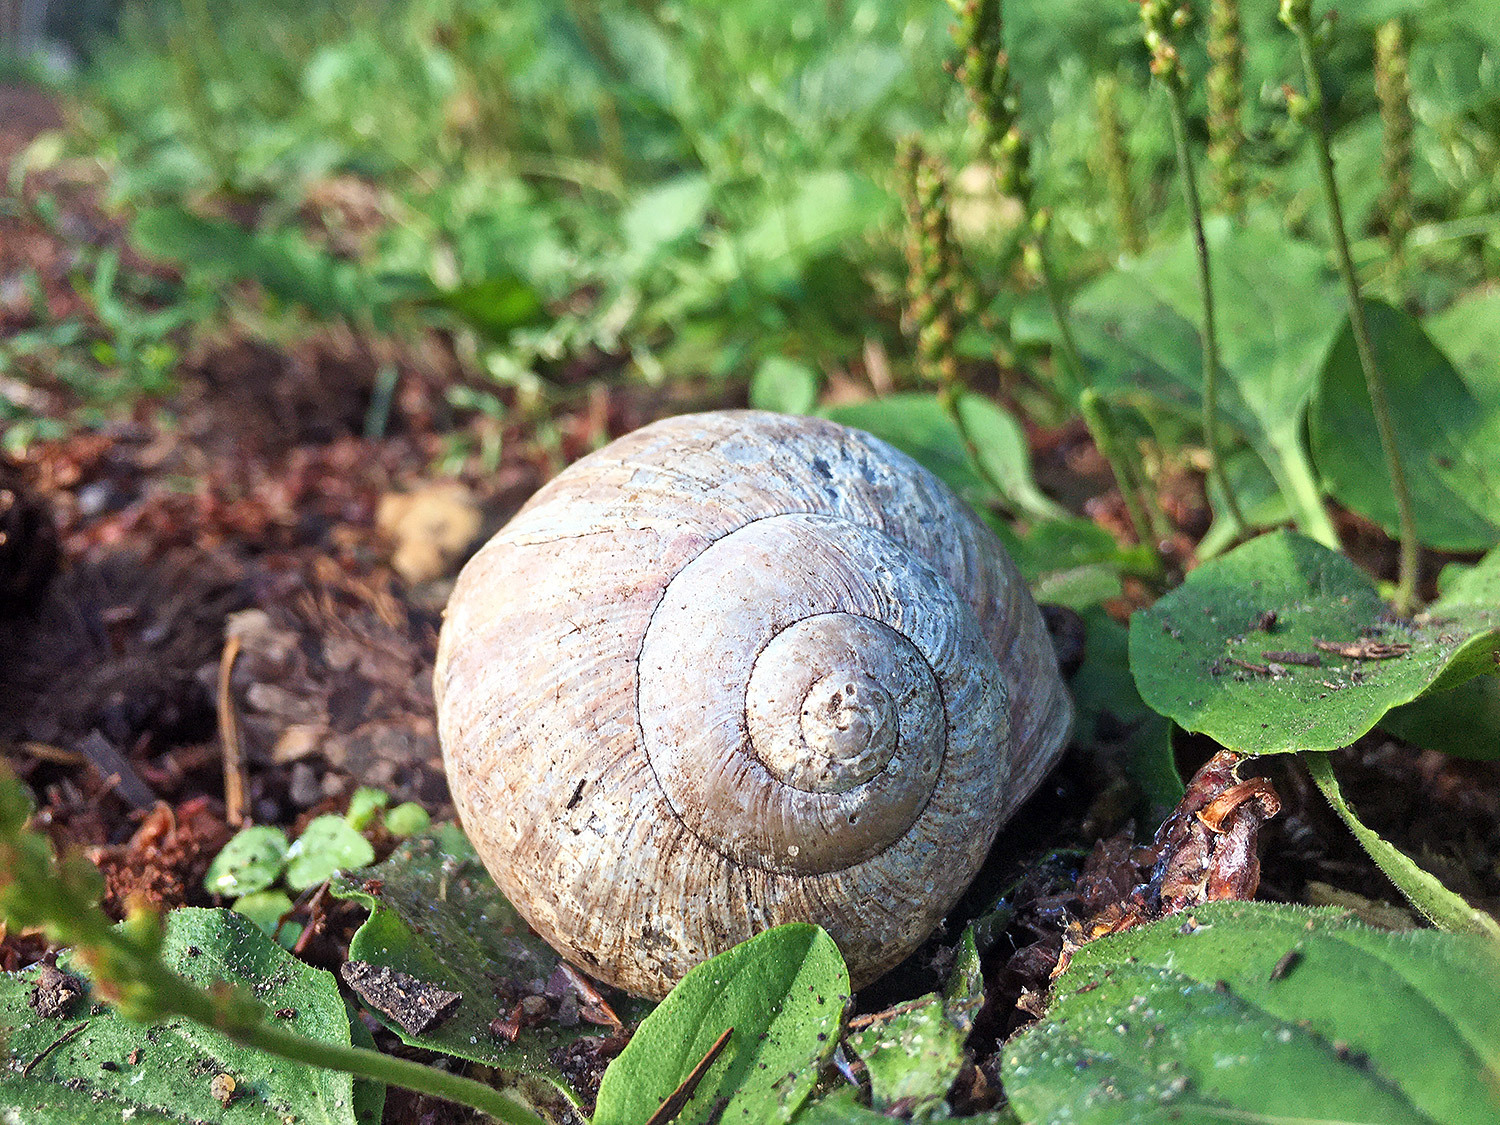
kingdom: Animalia
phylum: Mollusca
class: Gastropoda
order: Stylommatophora
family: Helicidae
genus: Helix
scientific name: Helix pomatia
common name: Roman snail
